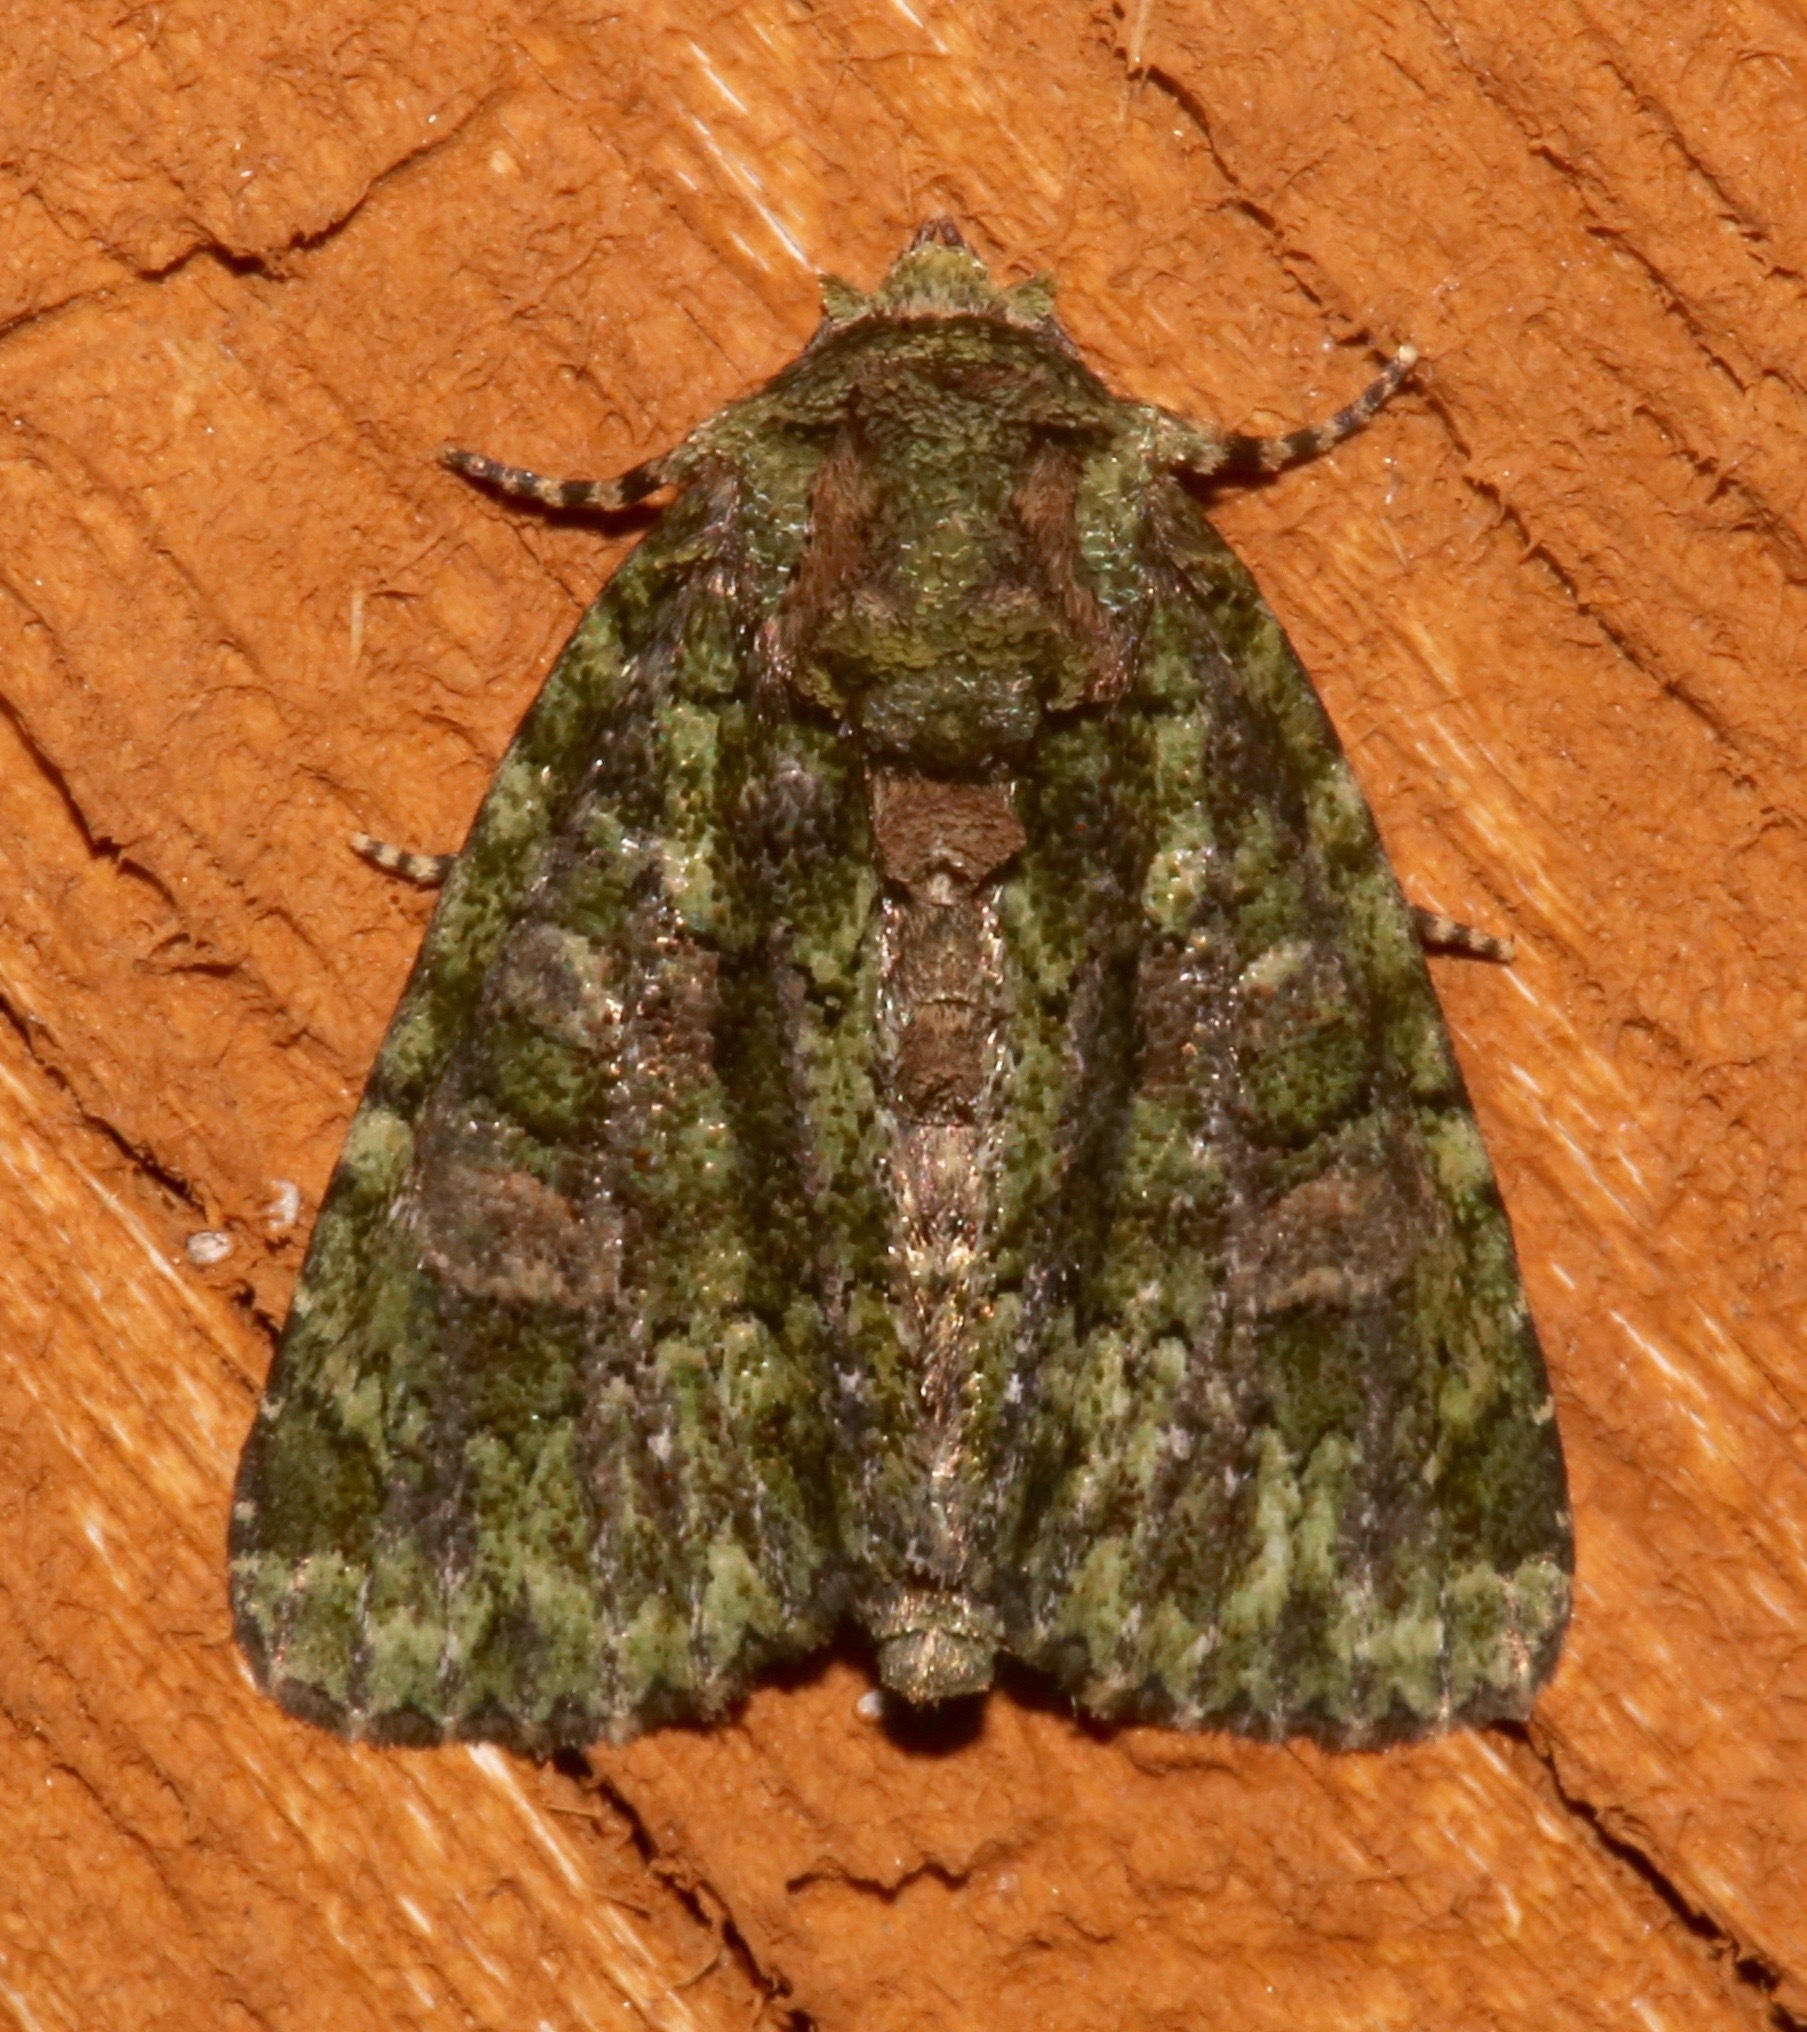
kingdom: Animalia
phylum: Arthropoda
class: Insecta
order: Lepidoptera
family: Noctuidae
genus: Phosphila
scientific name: Phosphila miselioides
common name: Spotted phosphila moth
